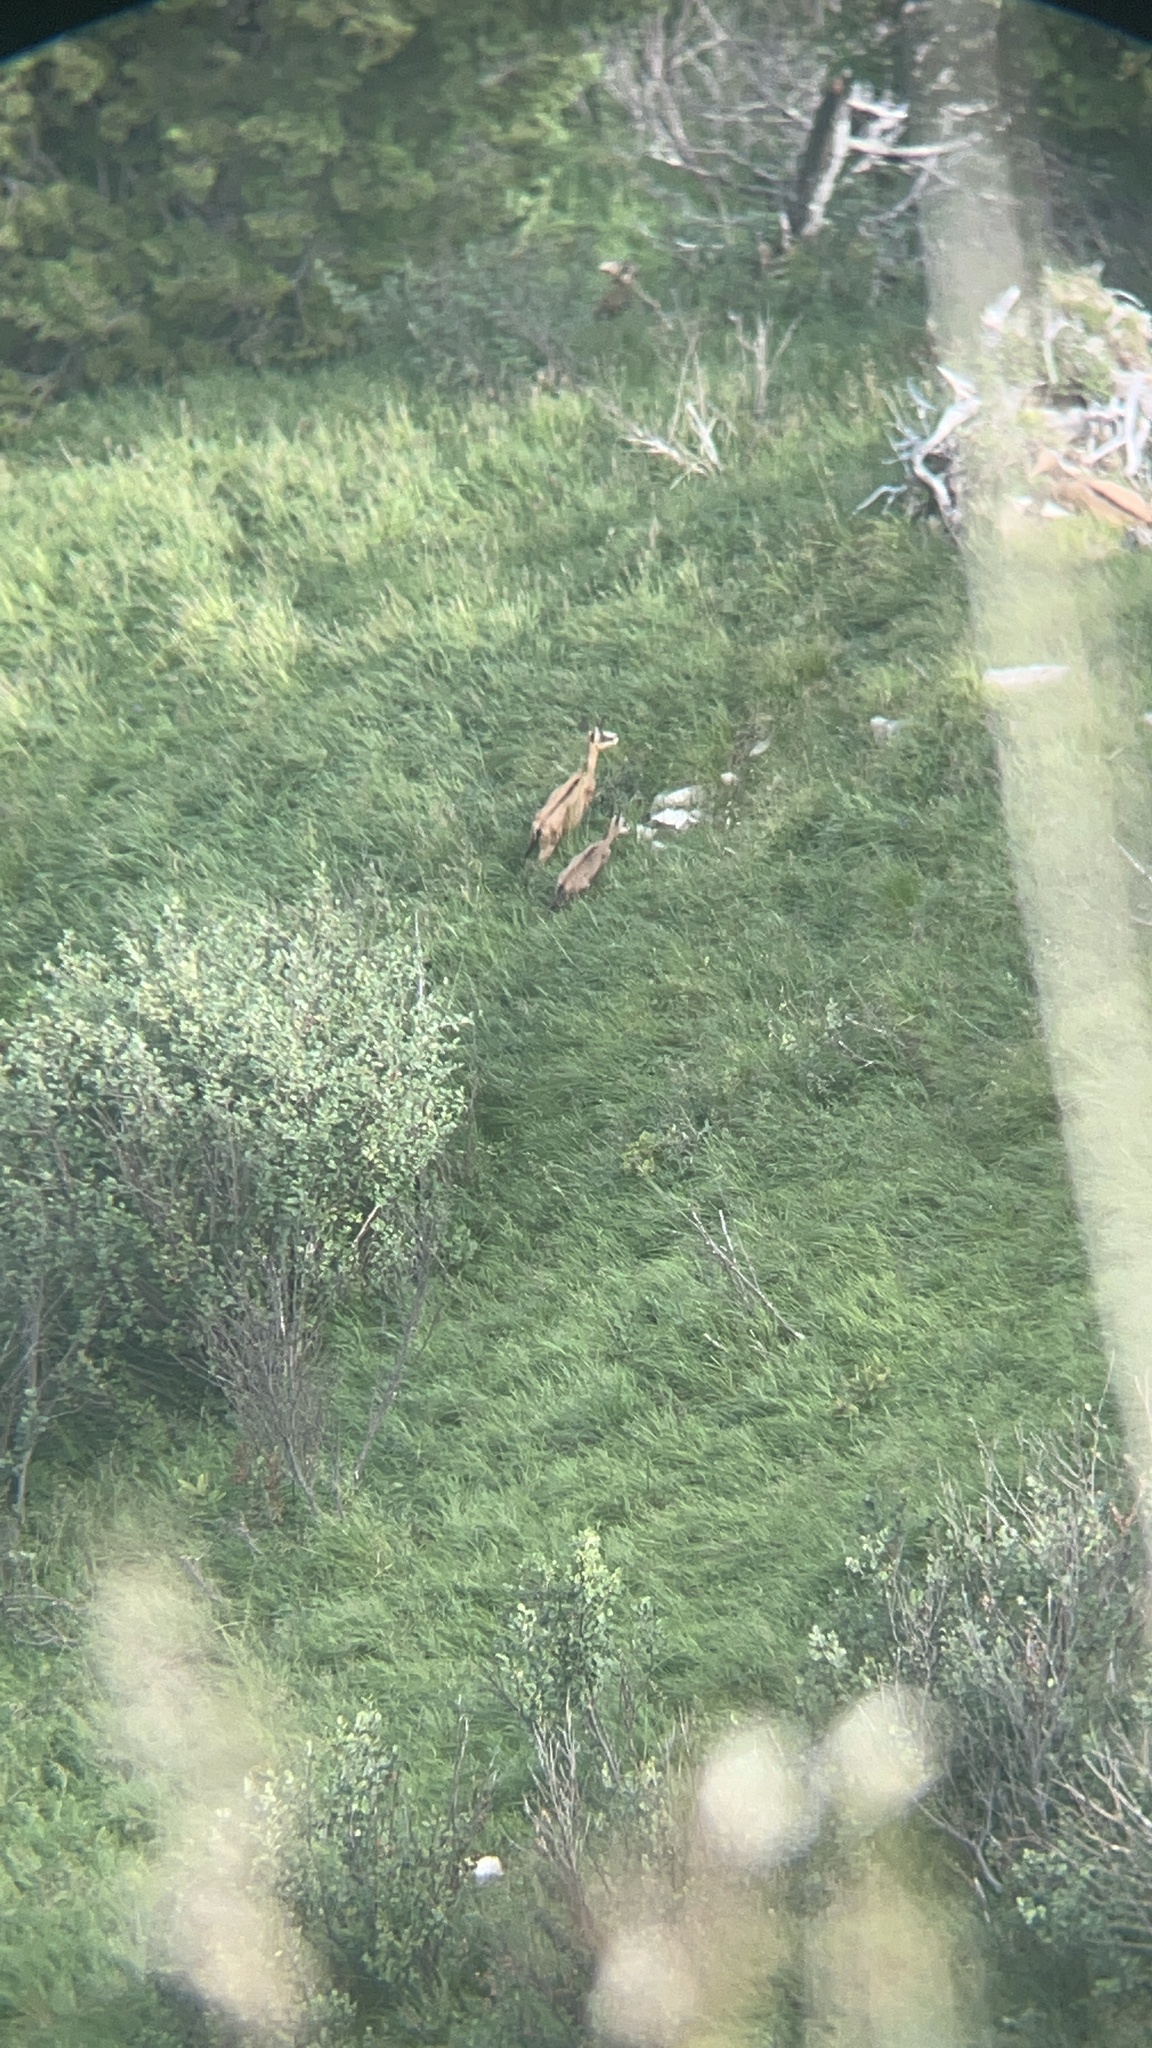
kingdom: Animalia
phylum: Chordata
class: Mammalia
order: Artiodactyla
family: Bovidae
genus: Rupicapra
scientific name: Rupicapra rupicapra
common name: Chamois
